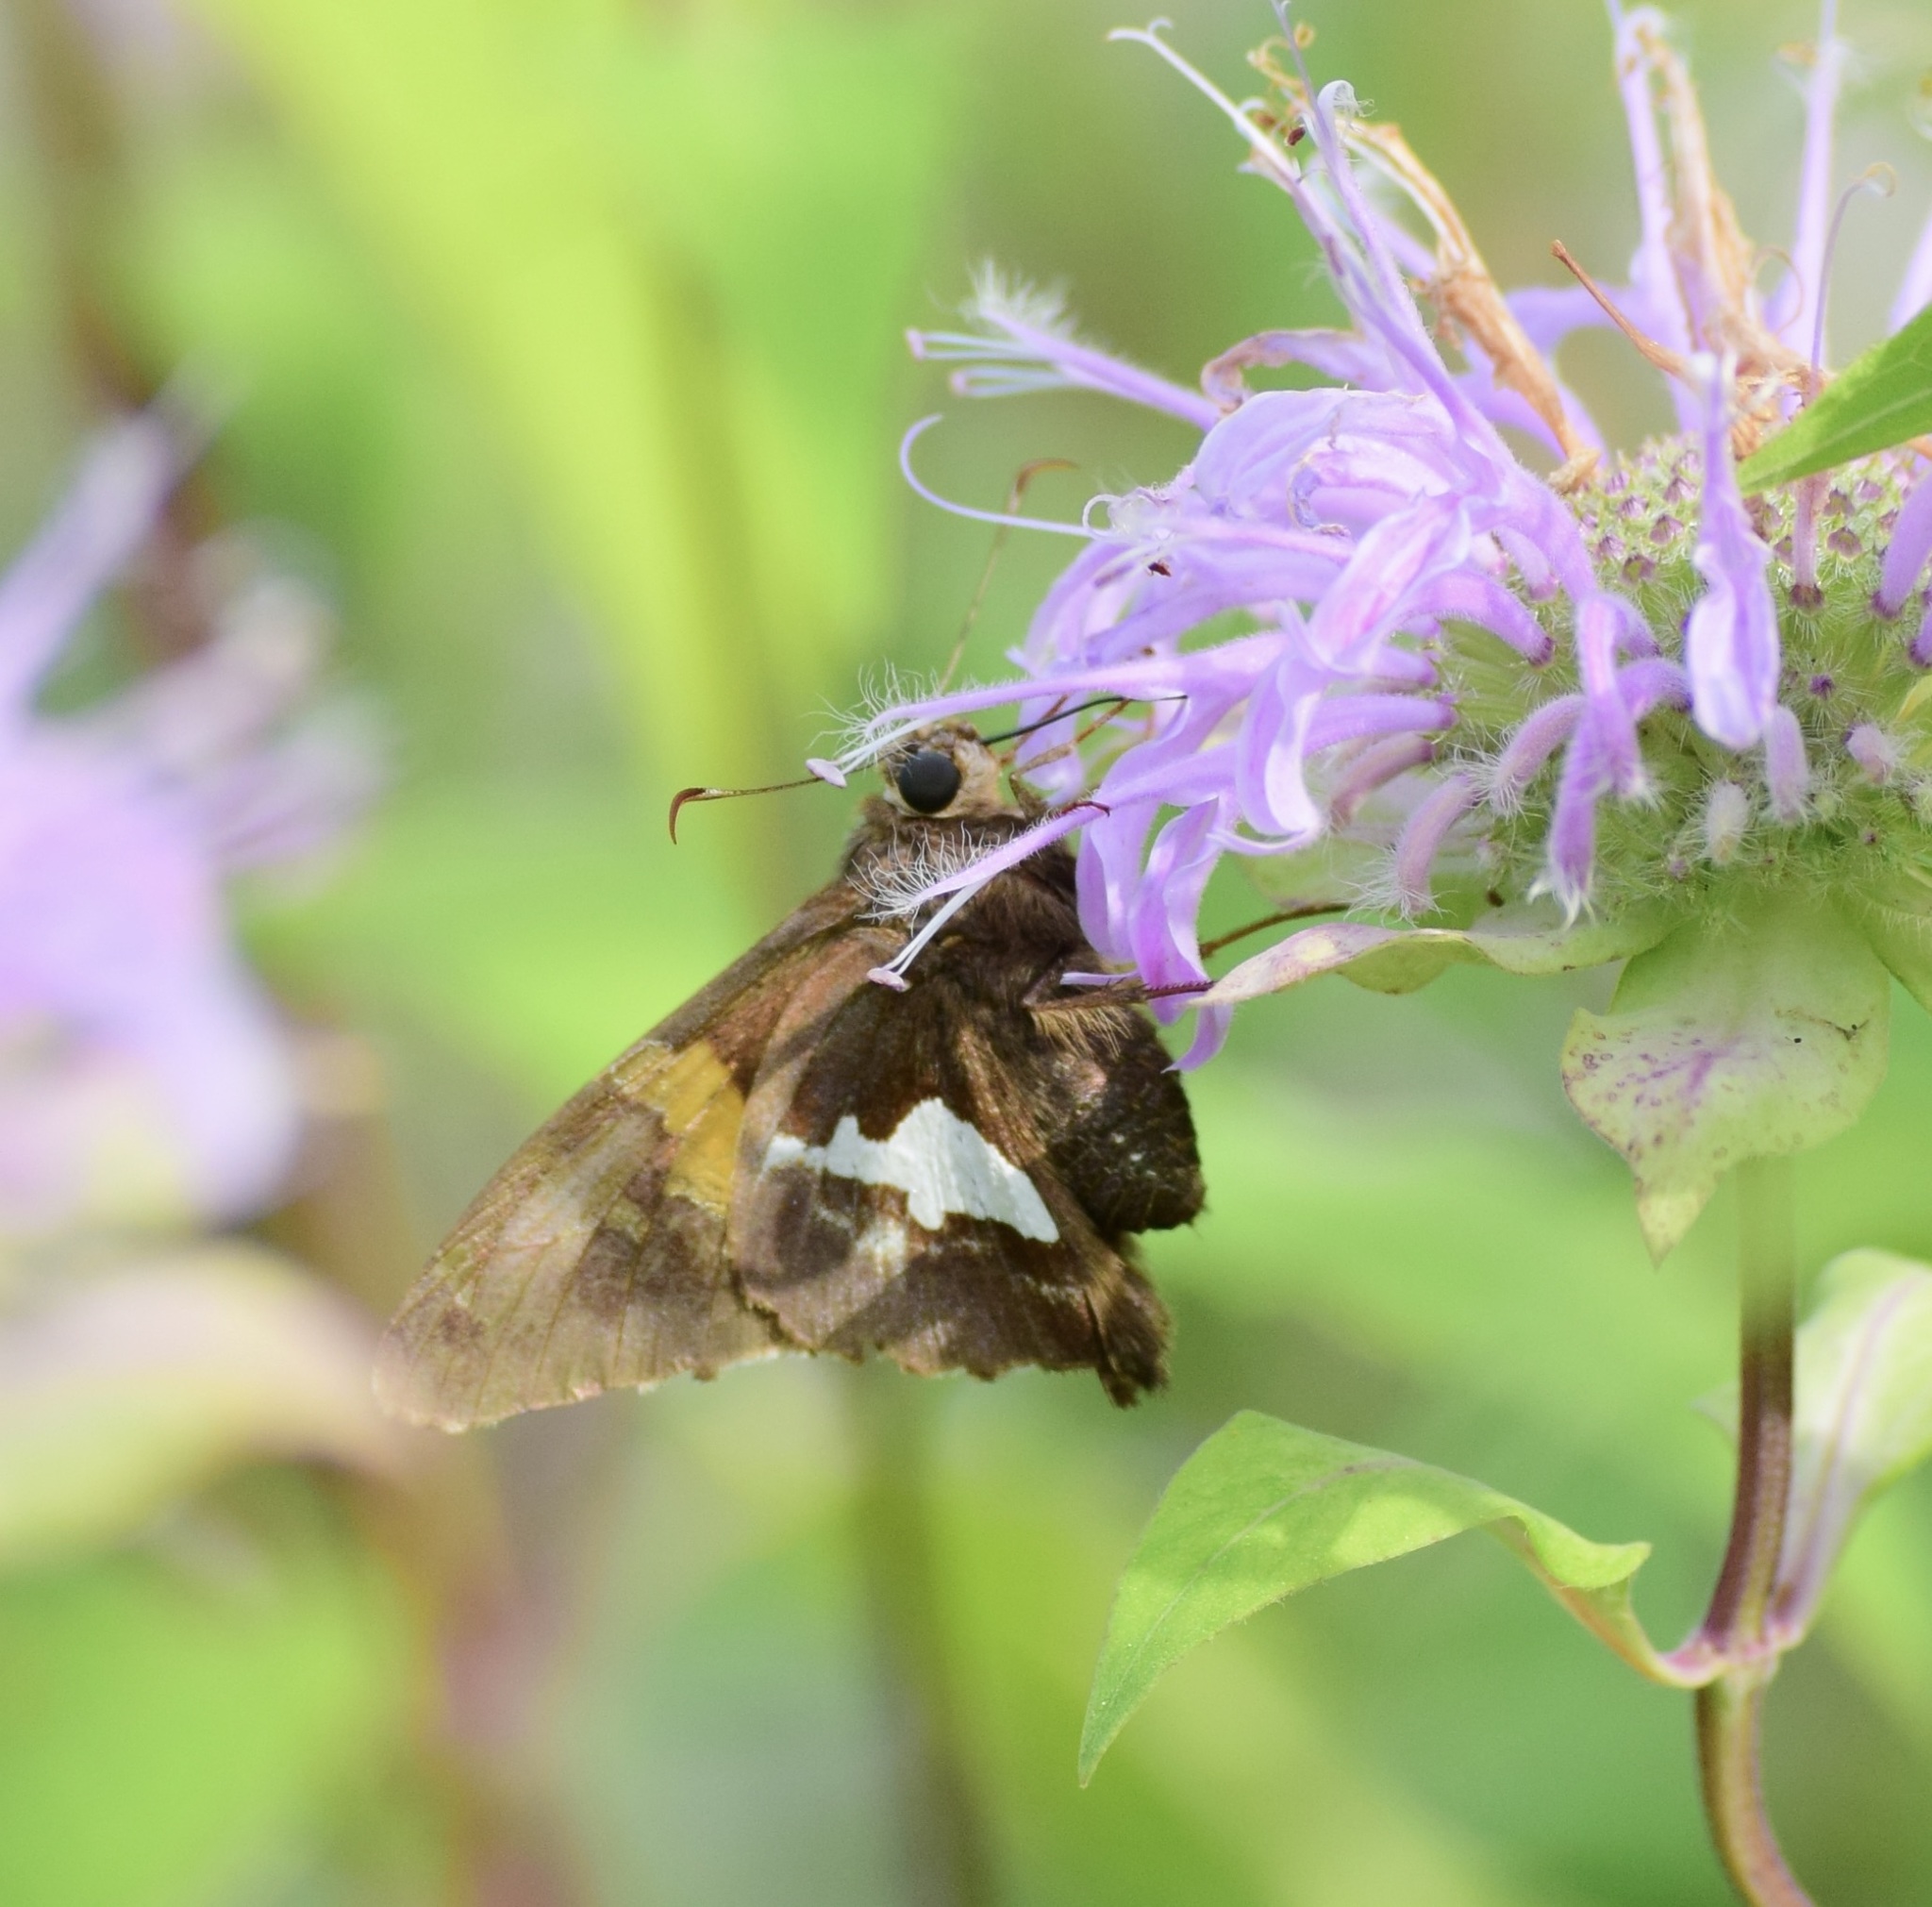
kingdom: Animalia
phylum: Arthropoda
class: Insecta
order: Lepidoptera
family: Hesperiidae
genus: Epargyreus
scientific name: Epargyreus clarus
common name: Silver-spotted skipper
